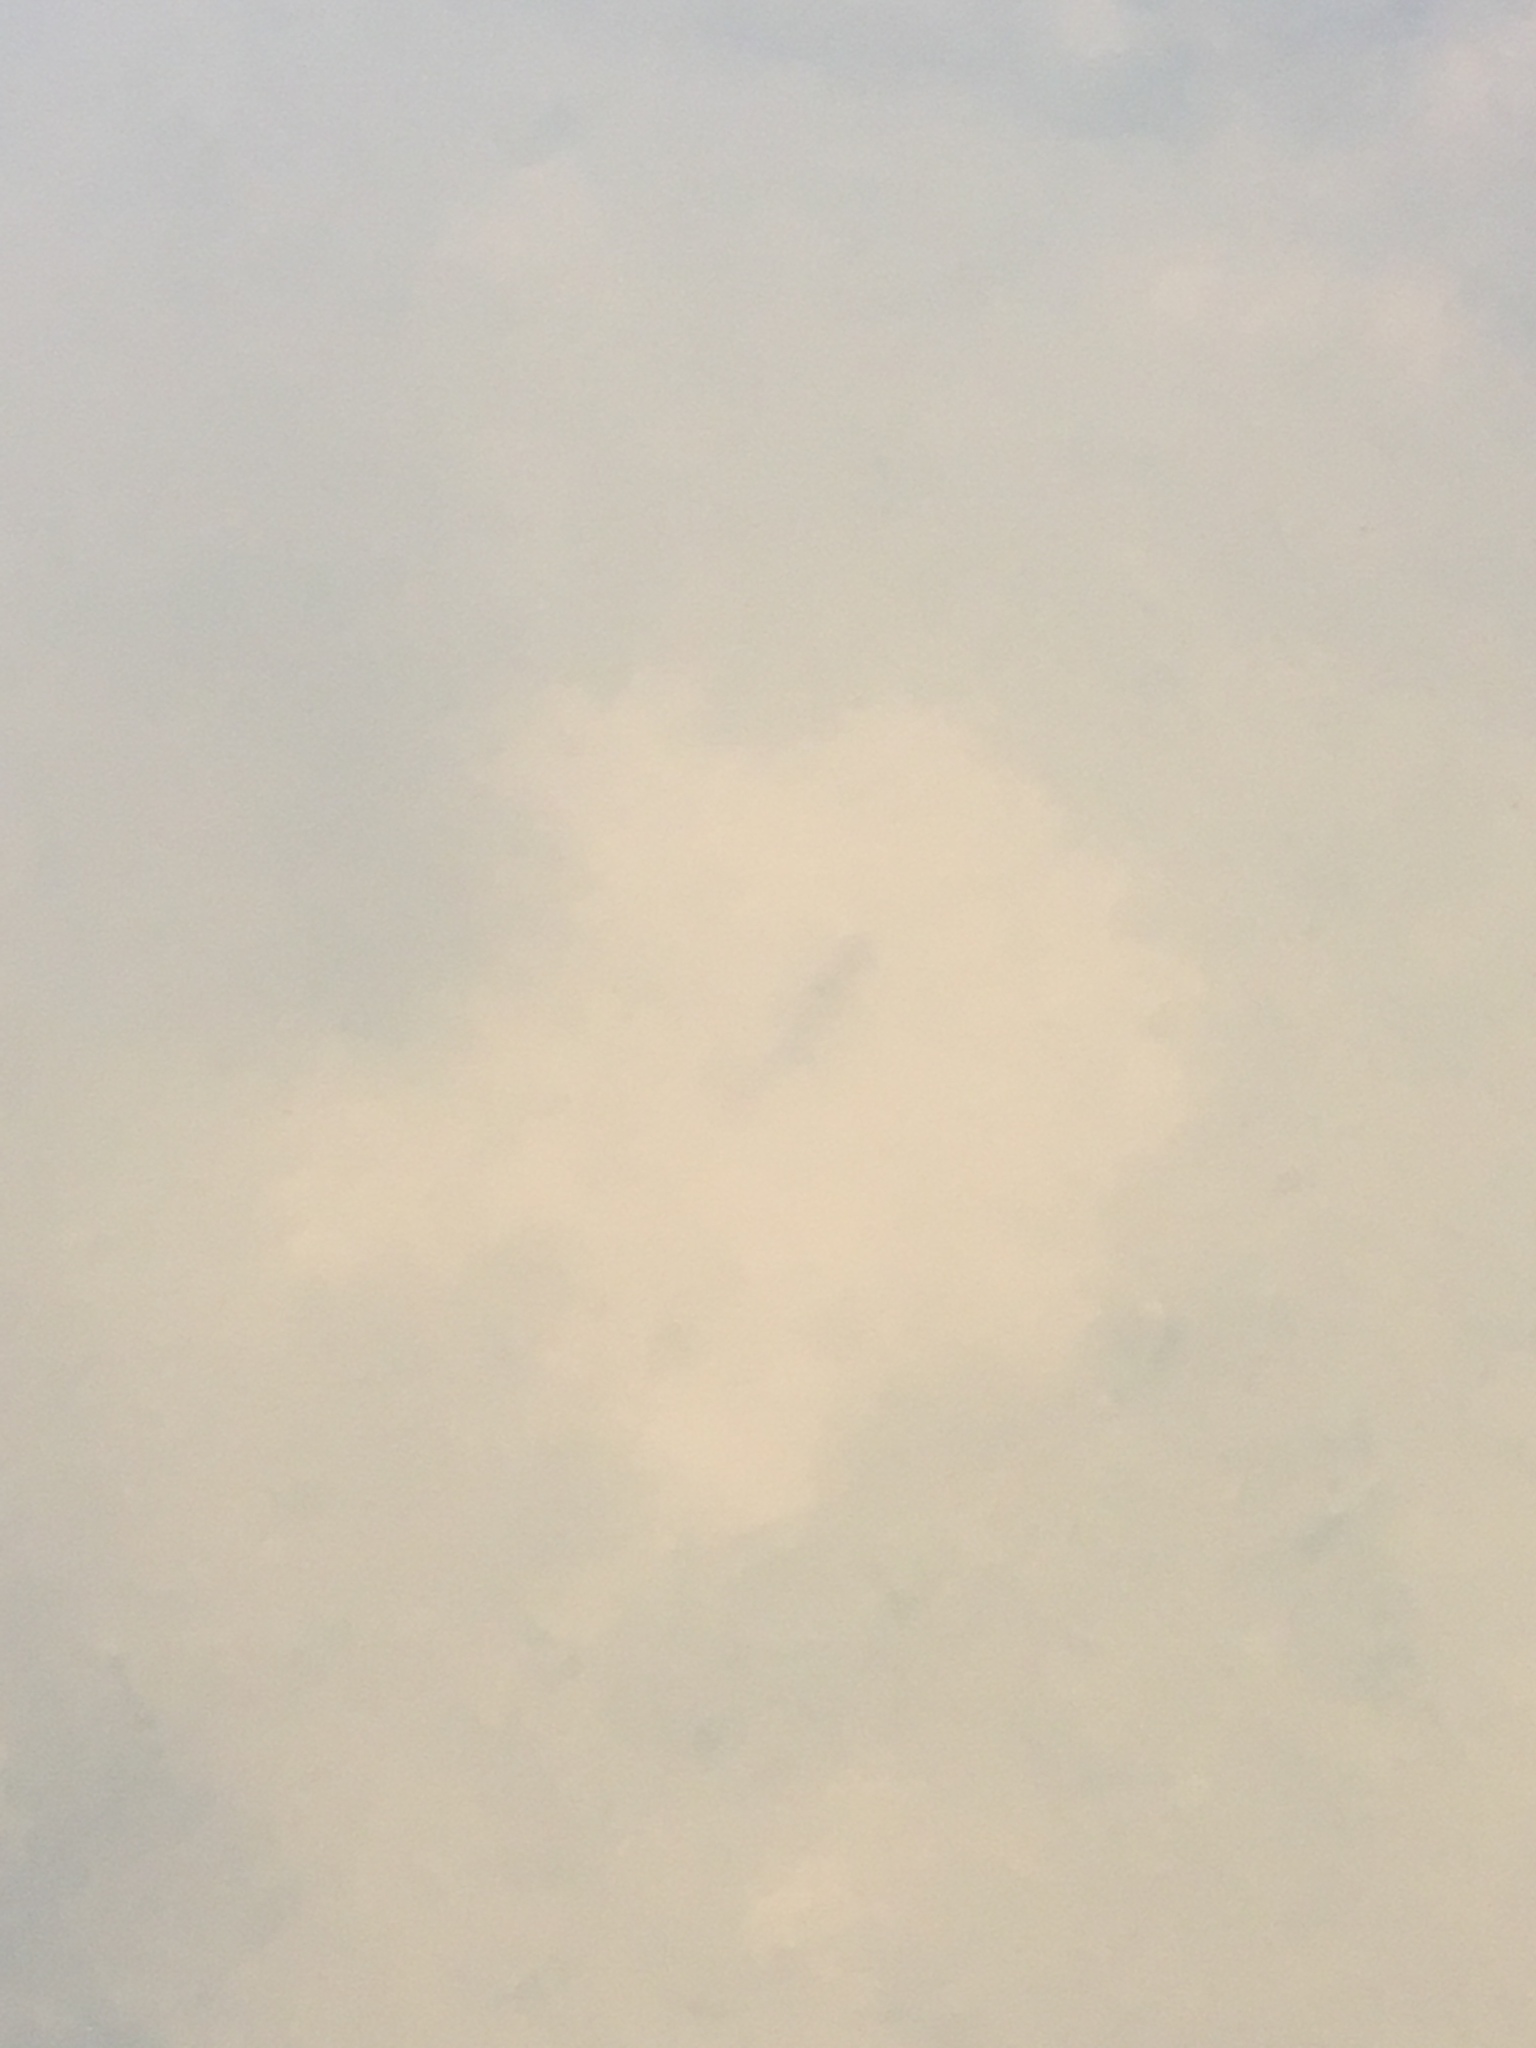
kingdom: Animalia
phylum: Chordata
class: Amphibia
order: Caudata
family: Salamandridae
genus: Notophthalmus
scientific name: Notophthalmus viridescens
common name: Eastern newt
